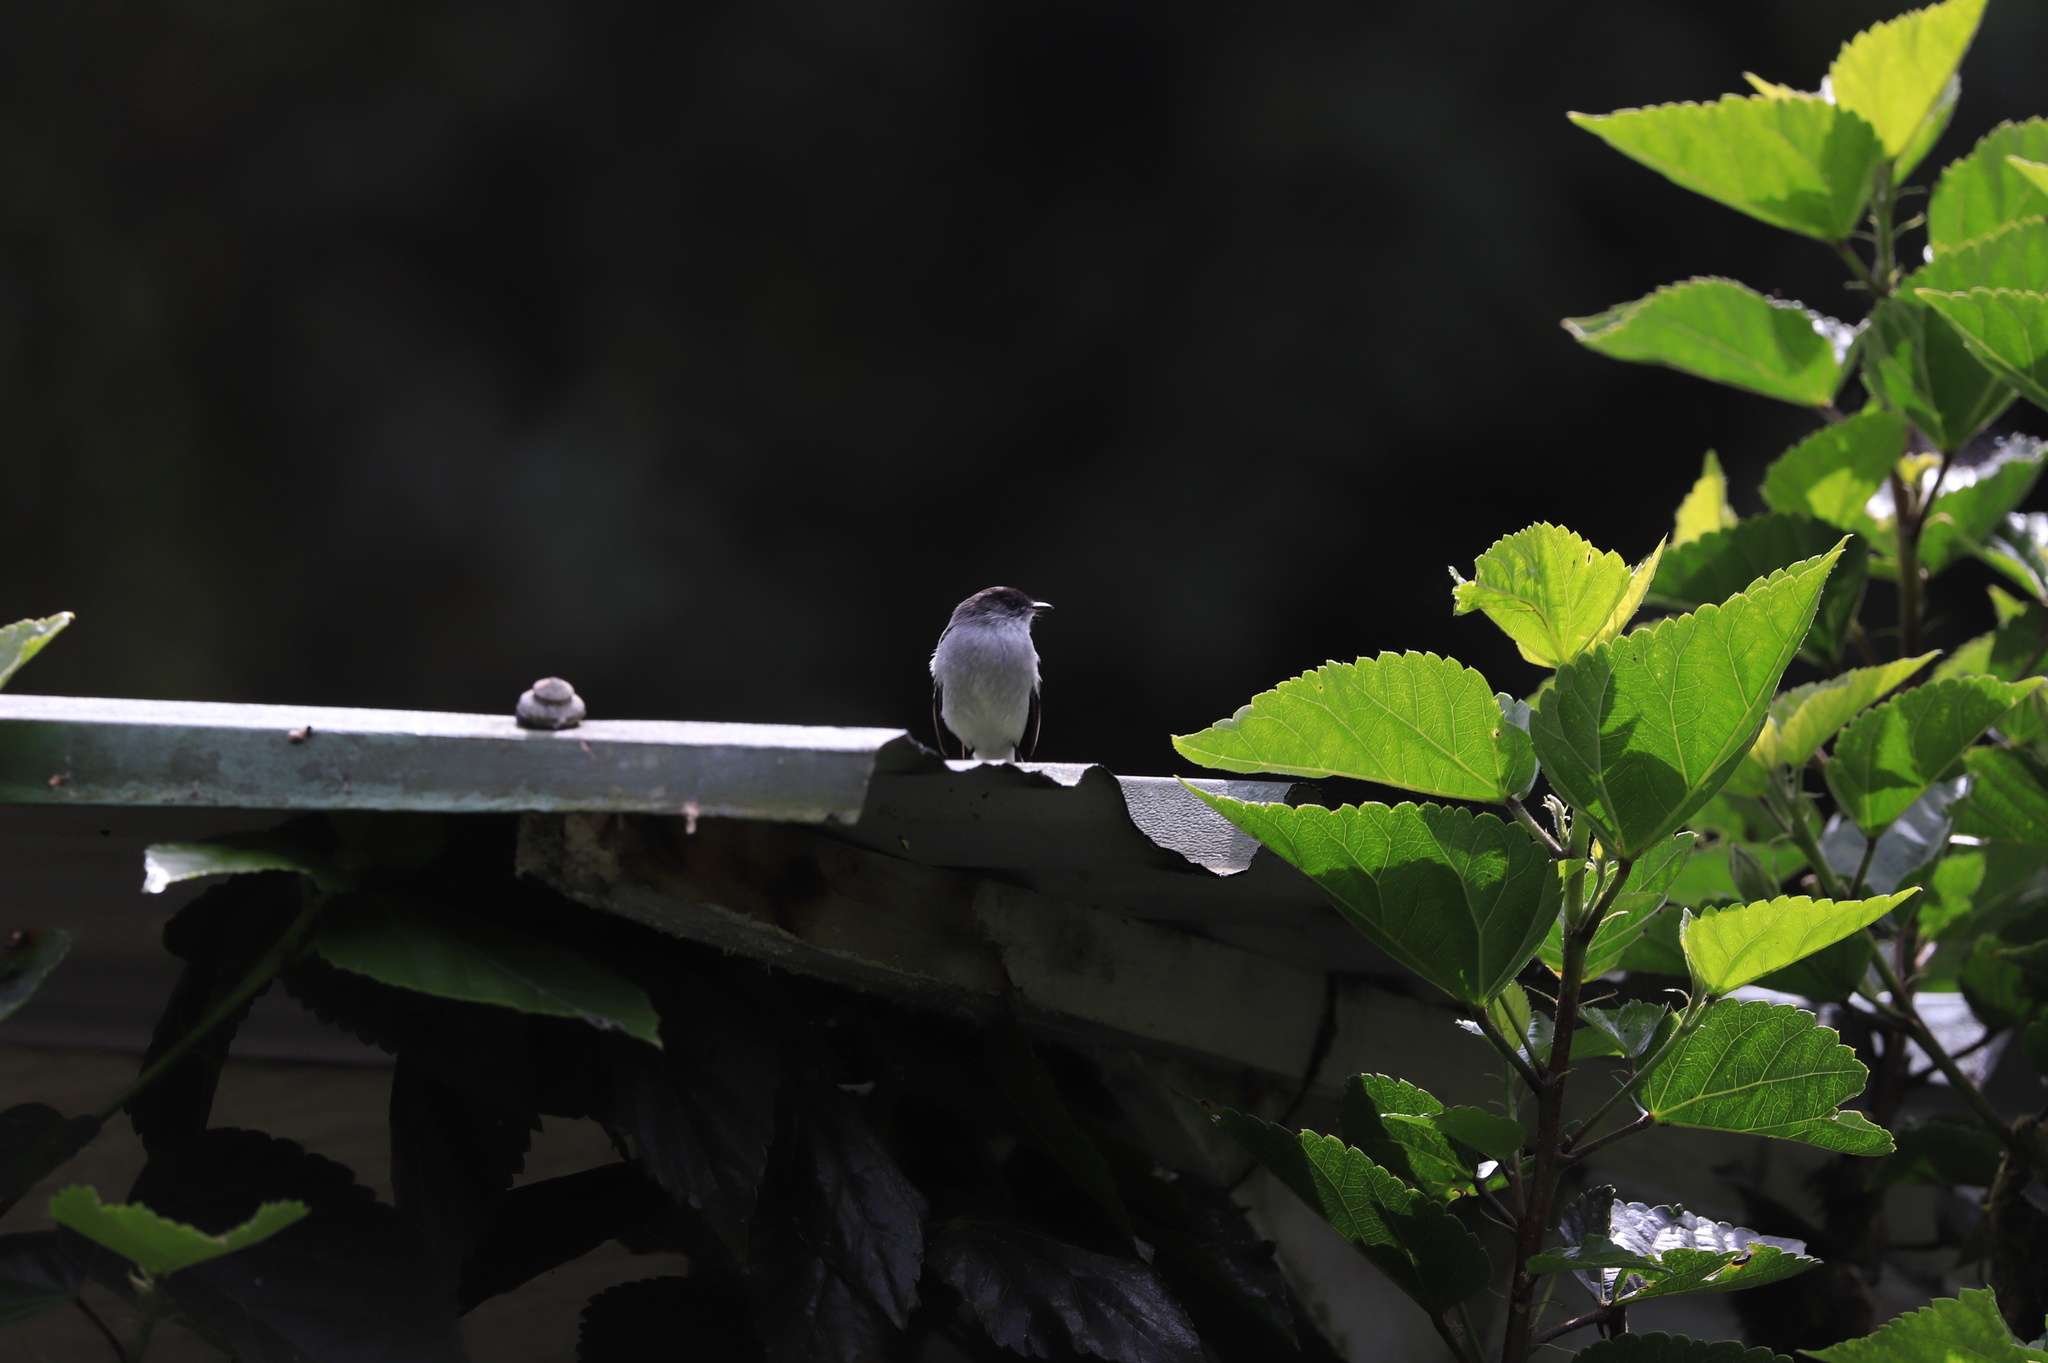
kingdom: Animalia
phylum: Chordata
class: Aves
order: Passeriformes
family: Tyrannidae
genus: Serpophaga
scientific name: Serpophaga cinerea
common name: Torrent tyrannulet
